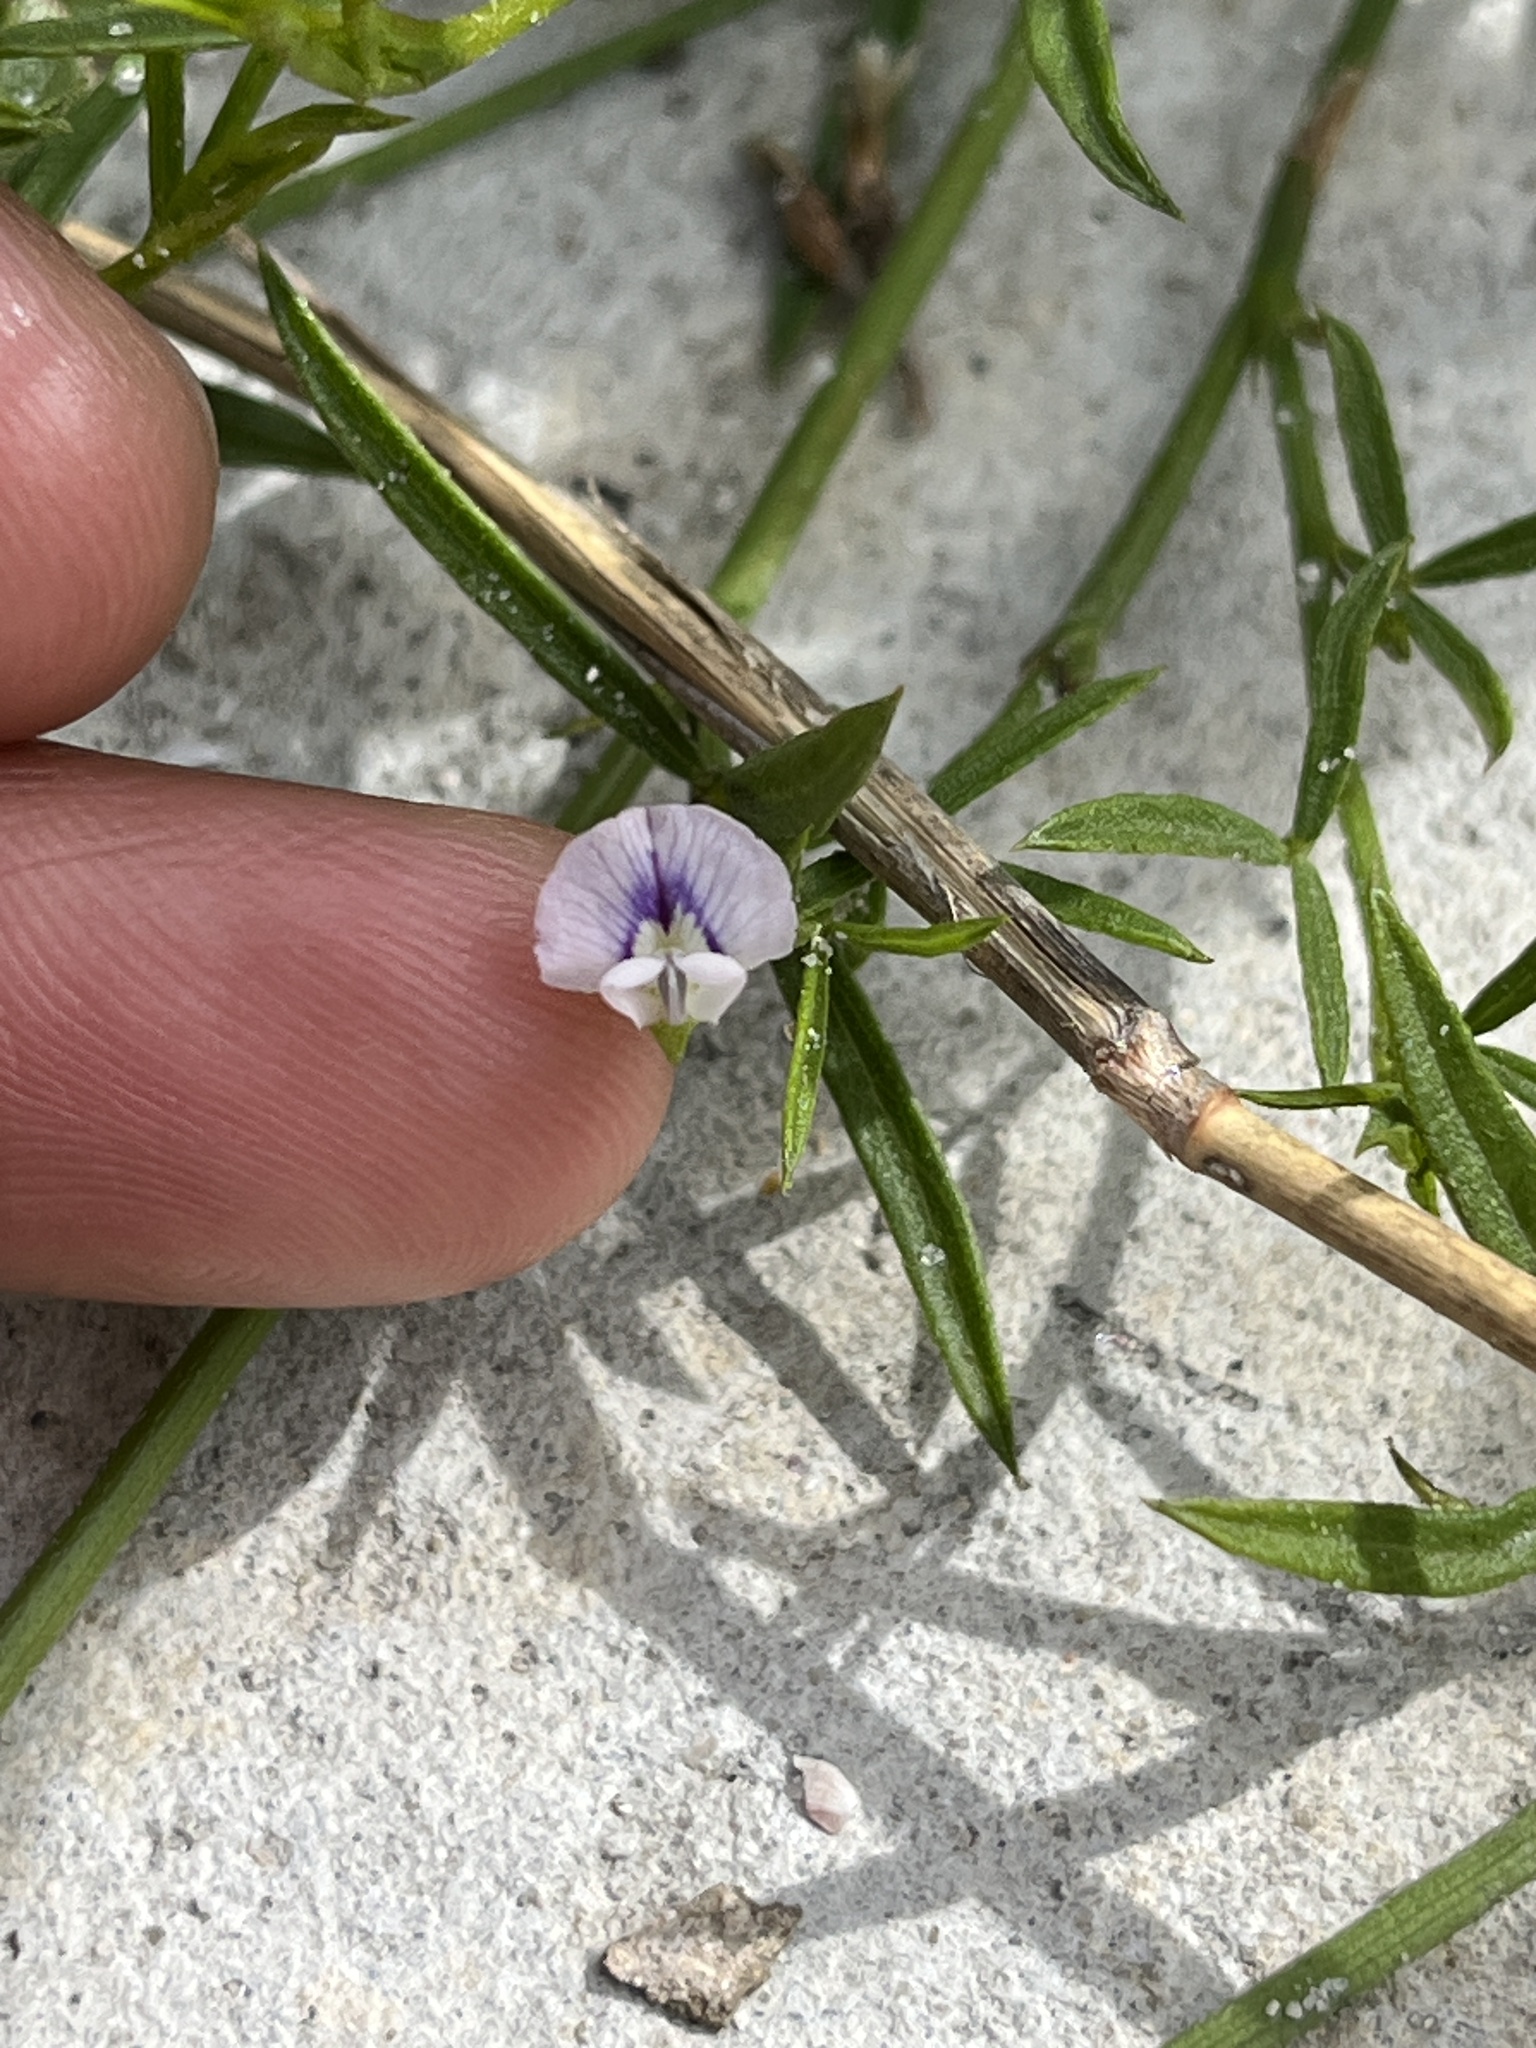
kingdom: Plantae
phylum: Tracheophyta
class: Magnoliopsida
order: Fabales
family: Fabaceae
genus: Psoralea
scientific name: Psoralea glaucina
